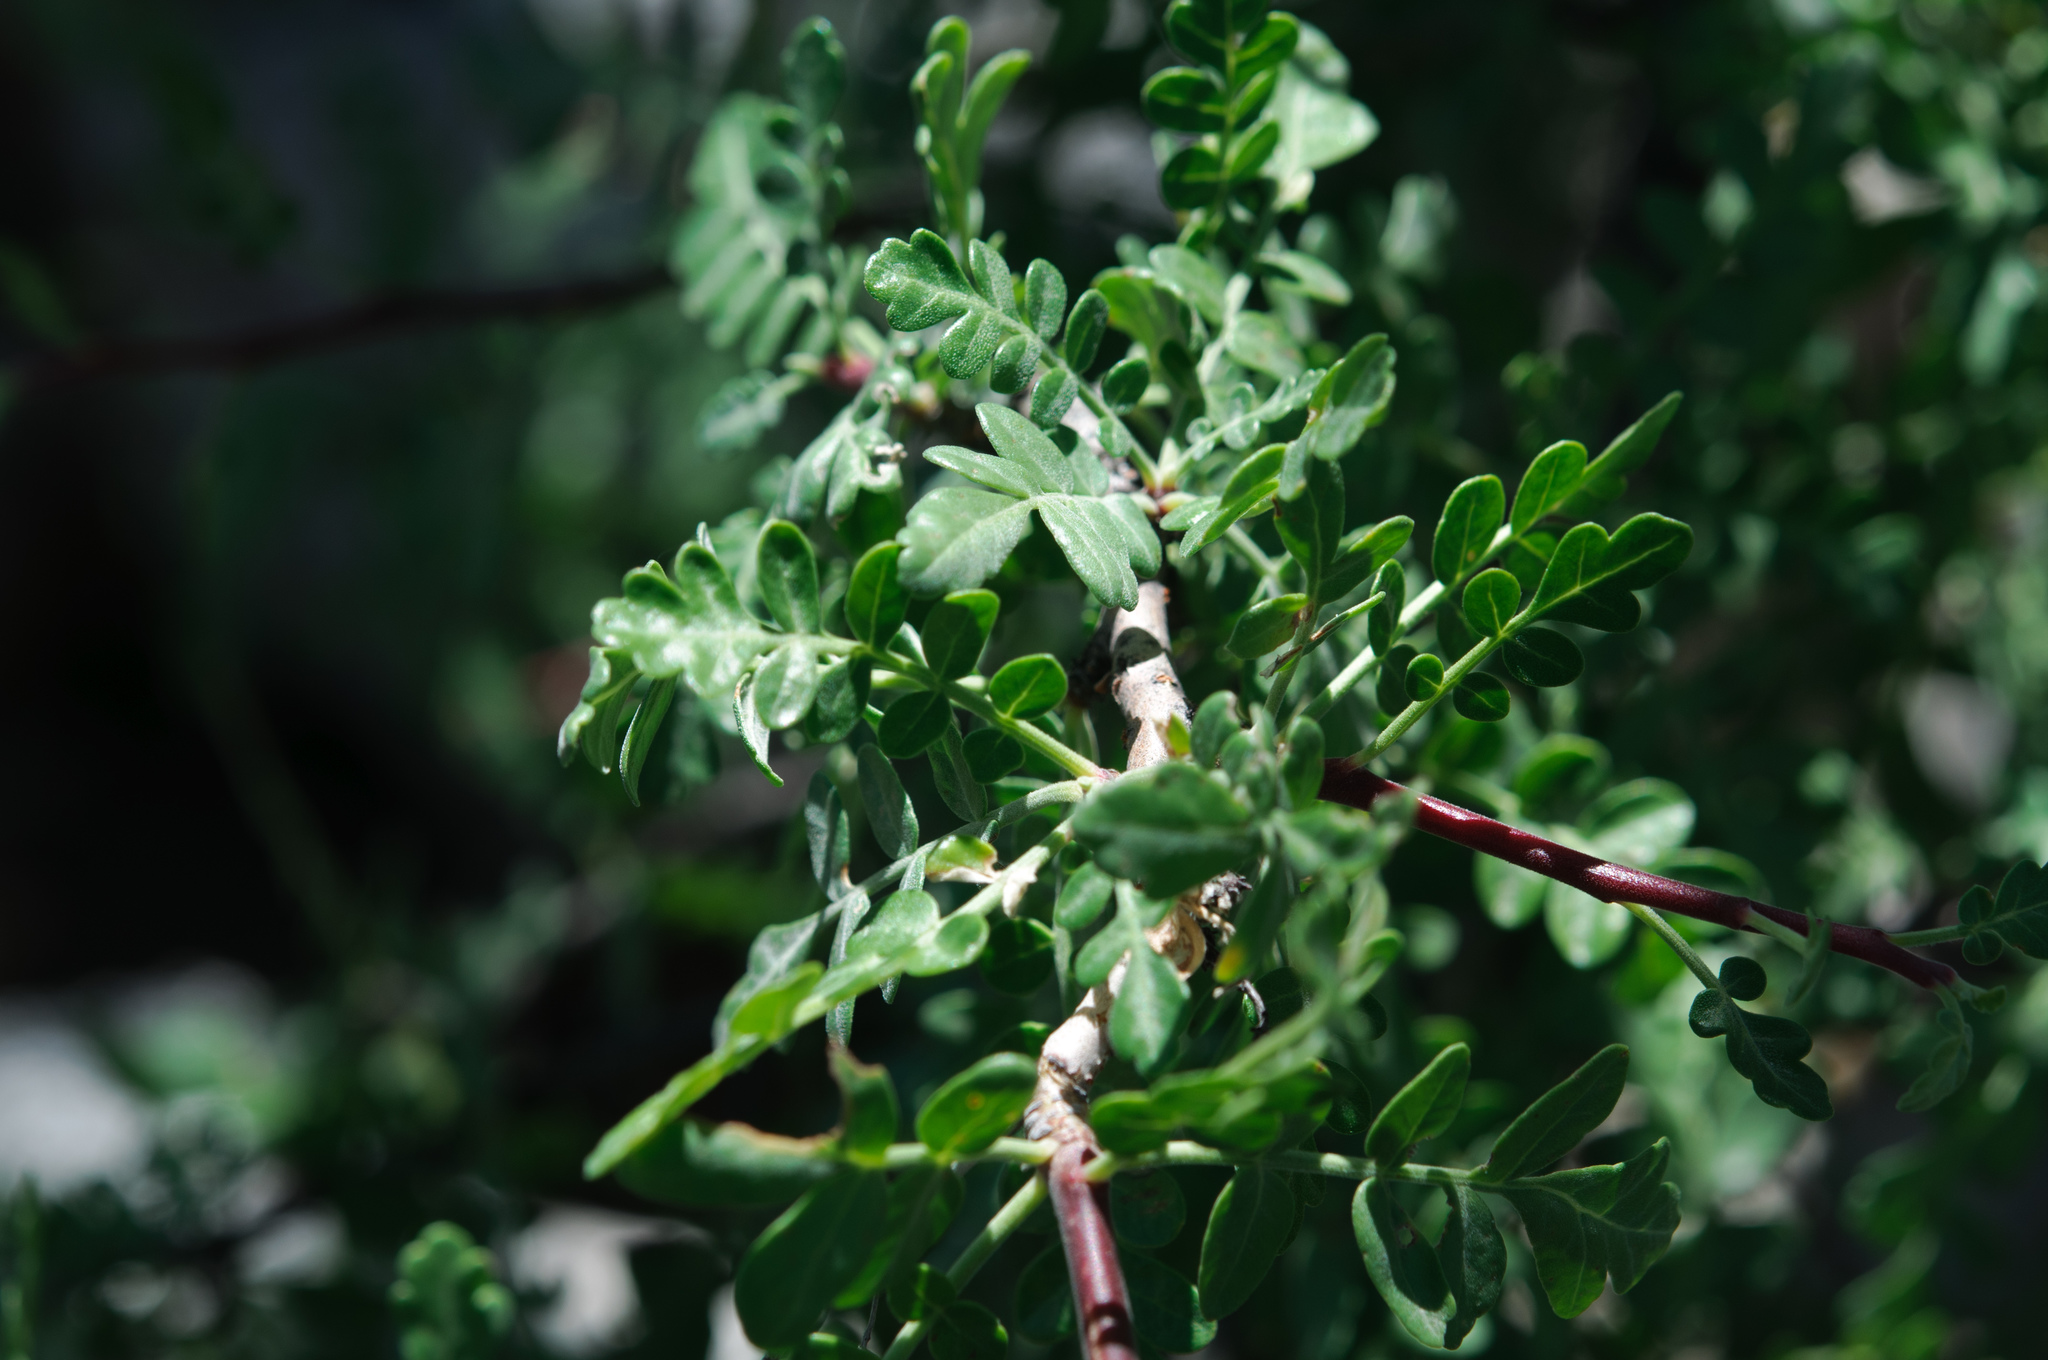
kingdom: Plantae
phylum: Tracheophyta
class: Magnoliopsida
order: Sapindales
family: Anacardiaceae
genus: Pachycormus
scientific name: Pachycormus discolor
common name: Succulent elephant trees
